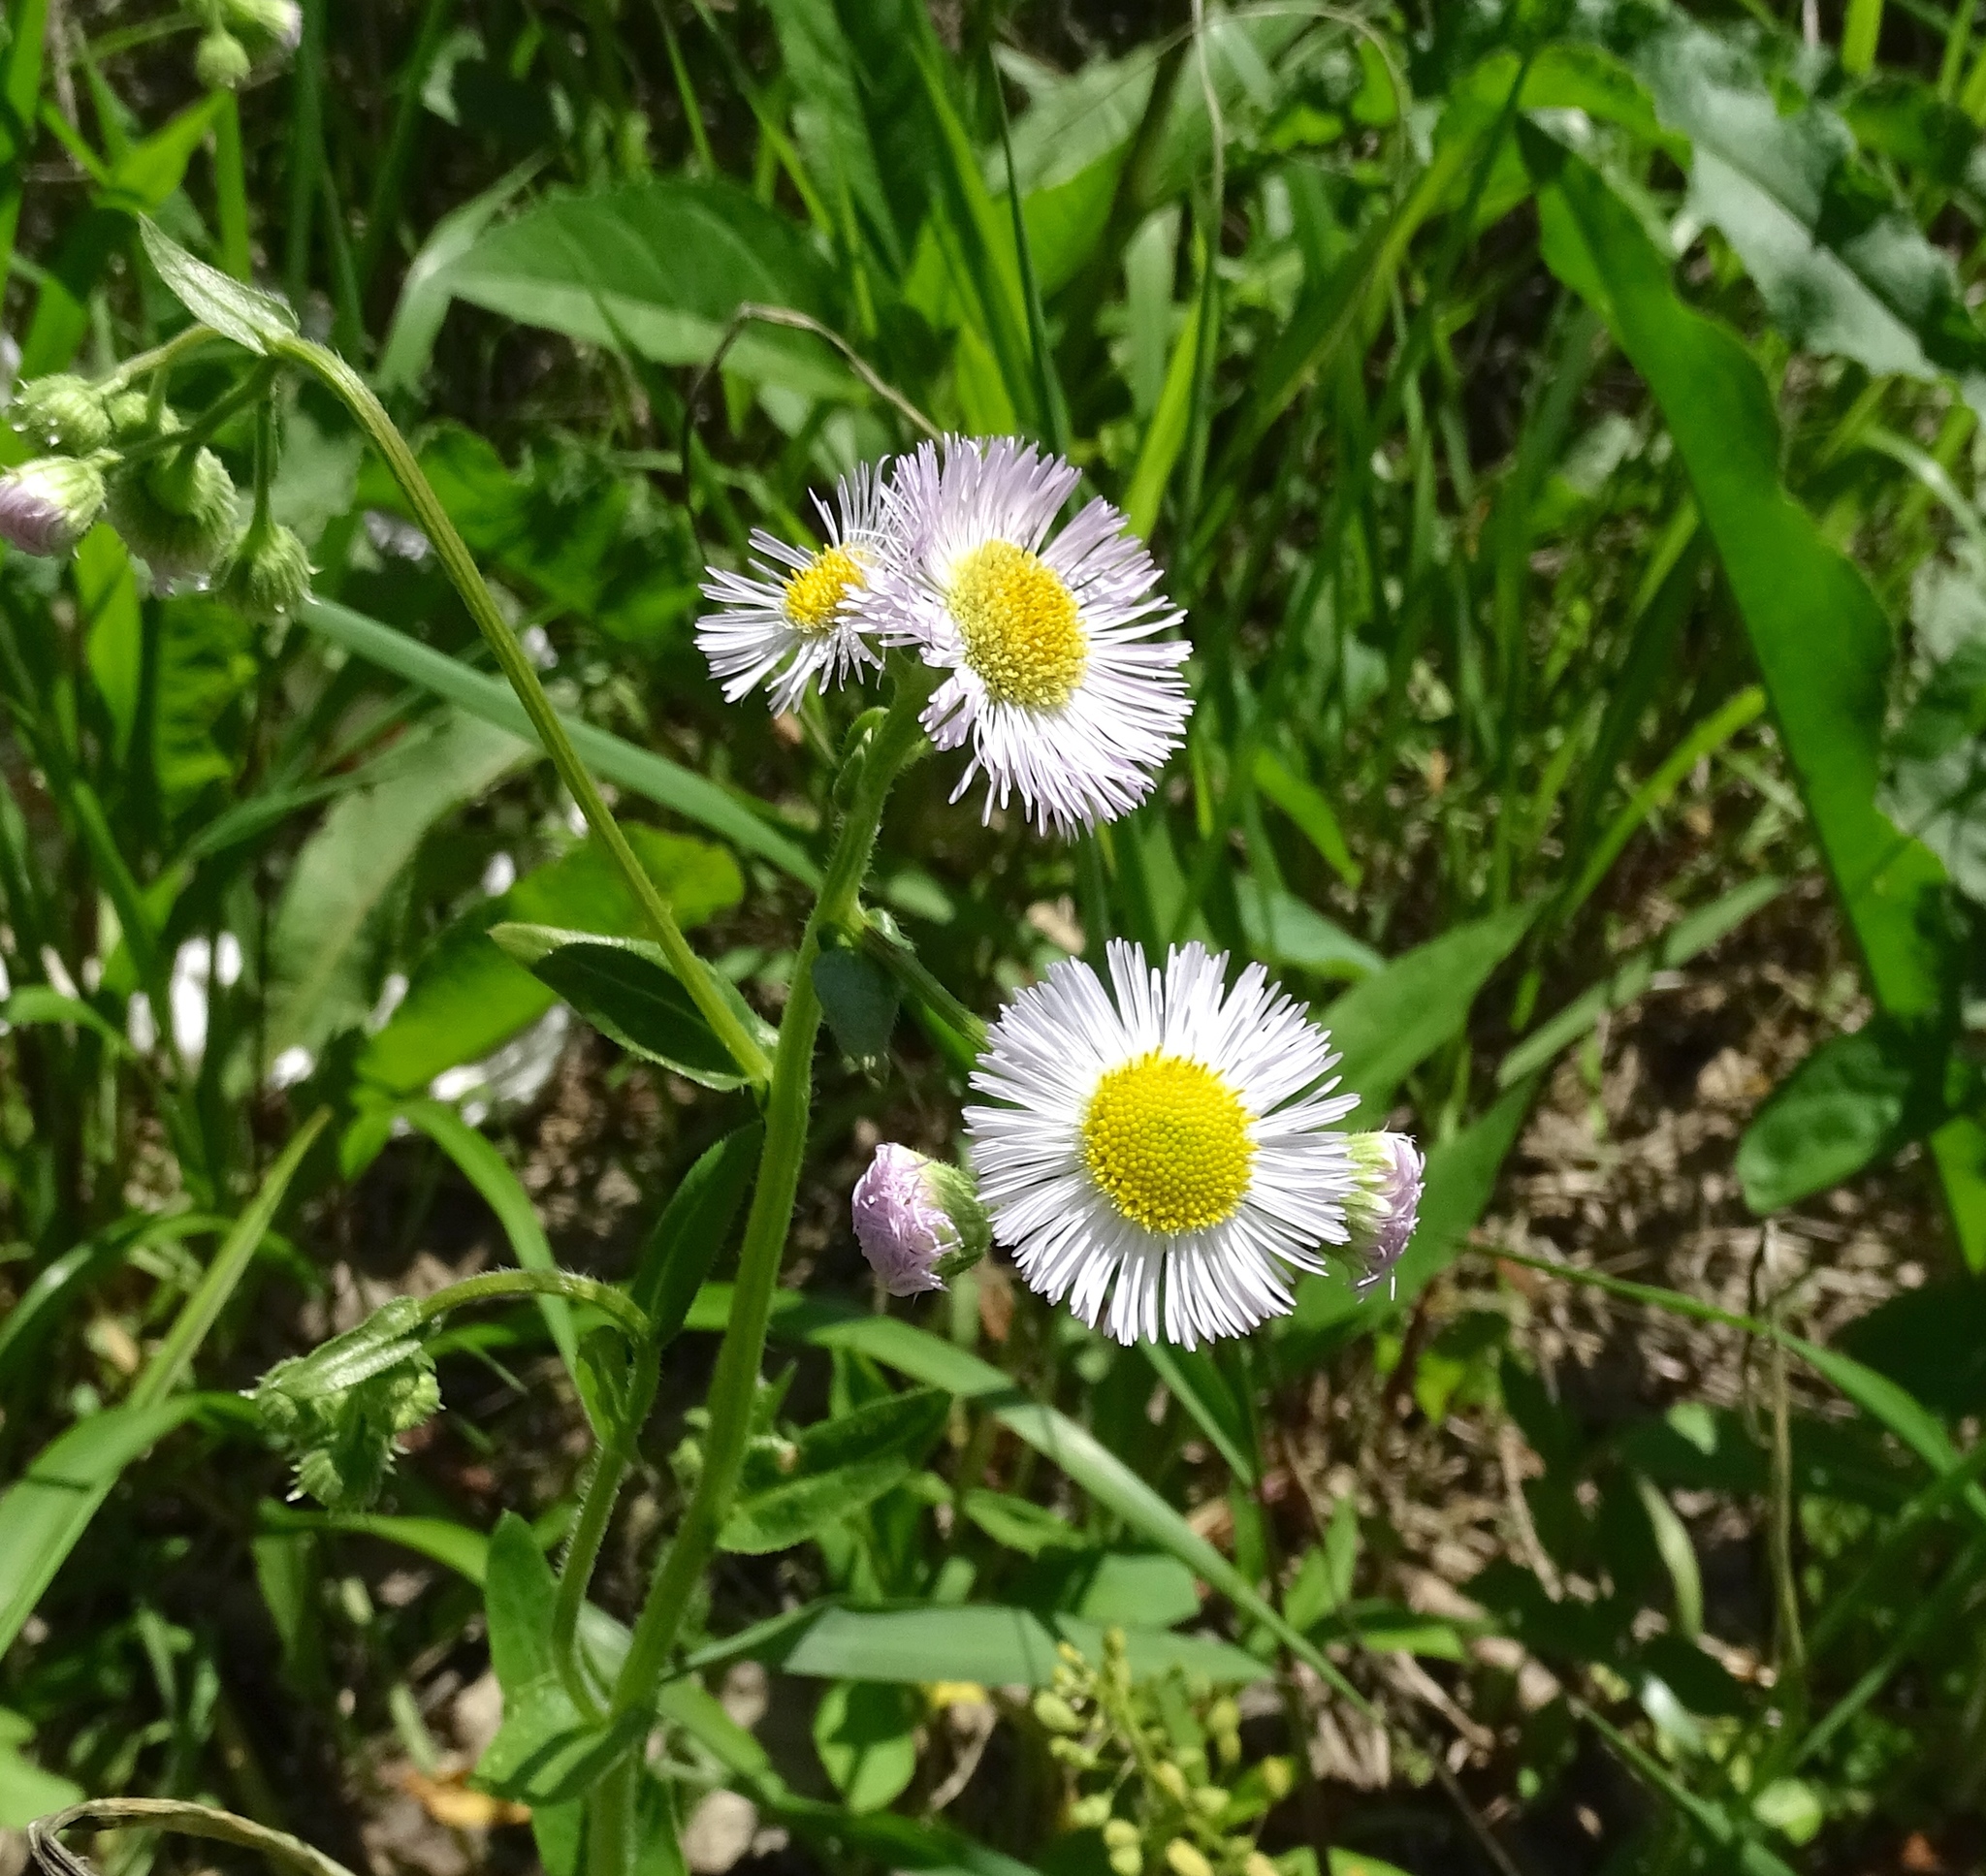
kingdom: Plantae
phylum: Tracheophyta
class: Magnoliopsida
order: Asterales
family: Asteraceae
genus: Erigeron
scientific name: Erigeron philadelphicus
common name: Robin's-plantain
